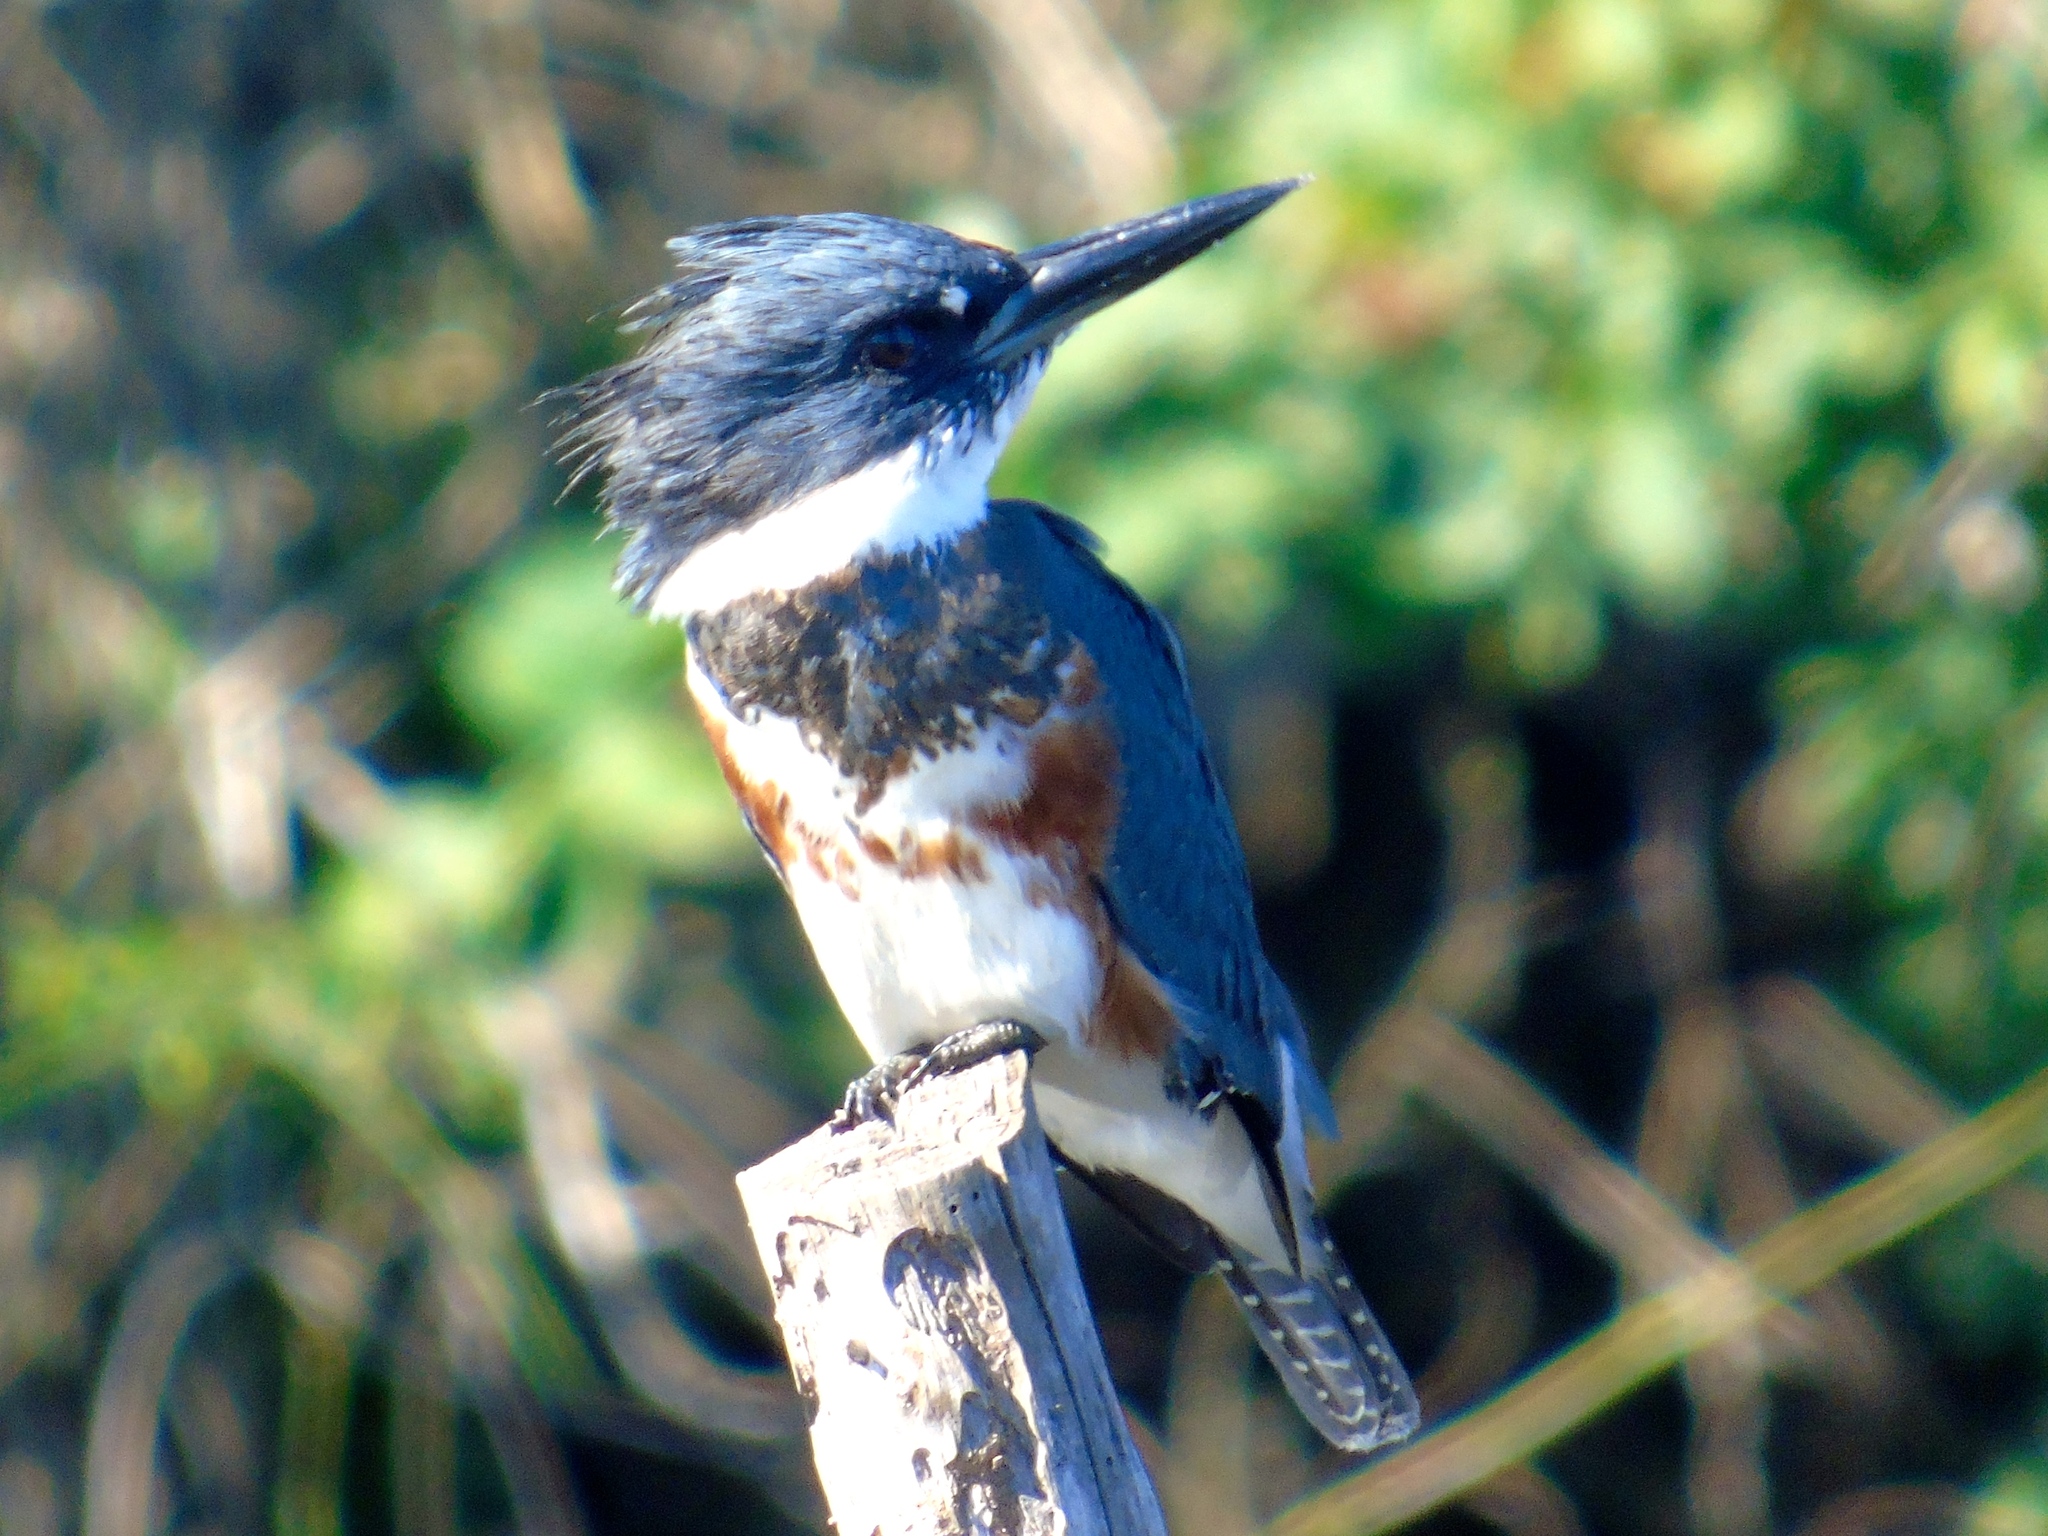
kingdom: Animalia
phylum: Chordata
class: Aves
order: Coraciiformes
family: Alcedinidae
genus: Megaceryle
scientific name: Megaceryle alcyon
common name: Belted kingfisher
